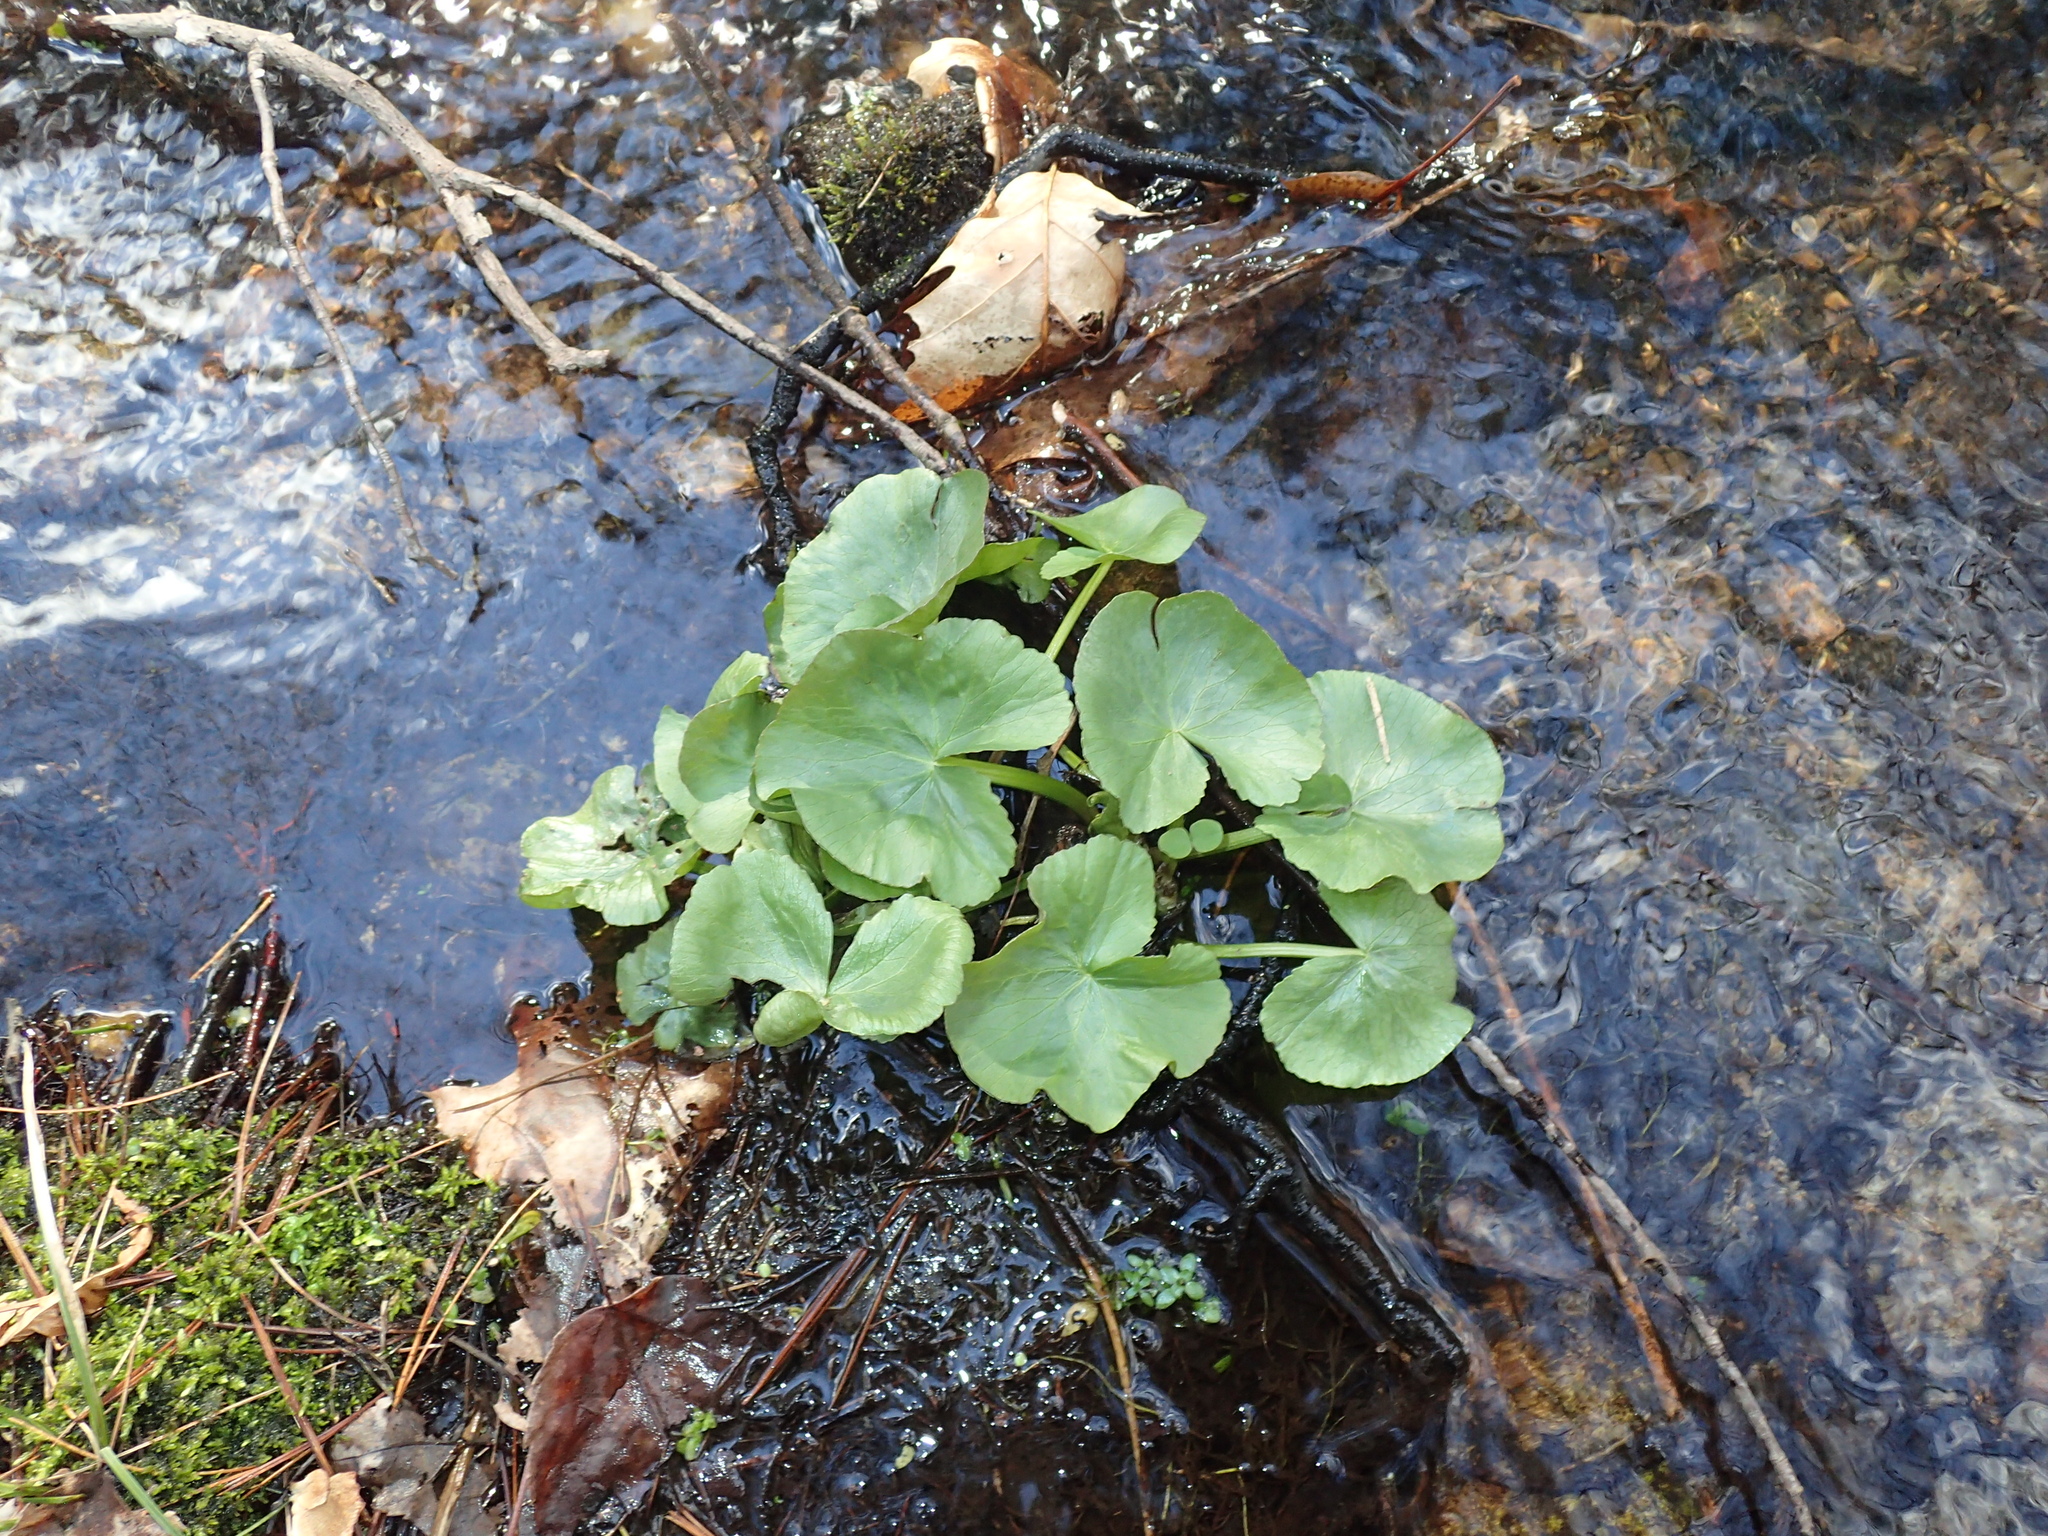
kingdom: Plantae
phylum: Tracheophyta
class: Magnoliopsida
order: Ranunculales
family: Ranunculaceae
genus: Caltha
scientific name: Caltha palustris
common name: Marsh marigold
